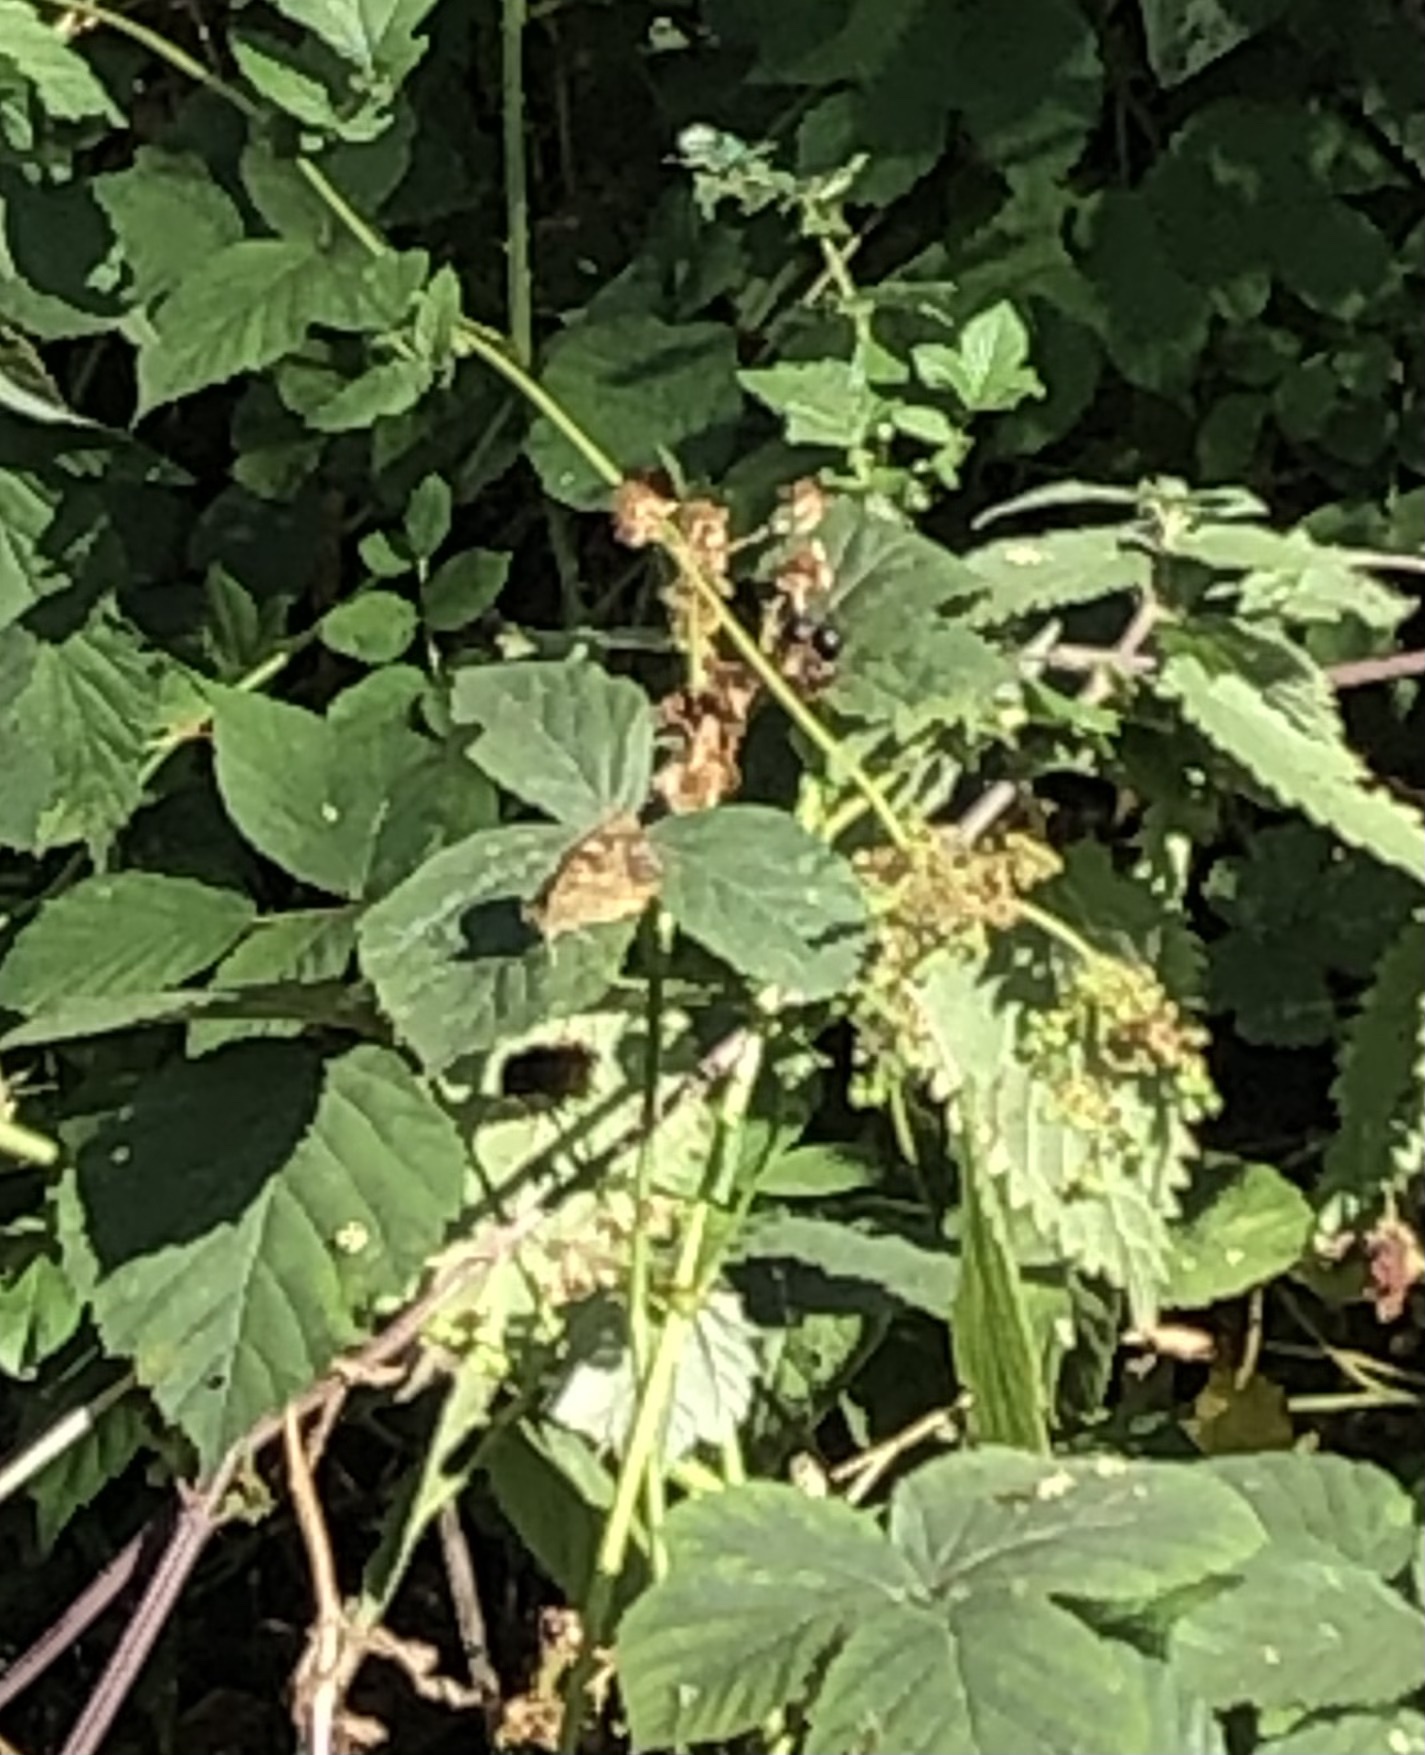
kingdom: Animalia
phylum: Arthropoda
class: Insecta
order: Lepidoptera
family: Nymphalidae
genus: Pararge
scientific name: Pararge aegeria
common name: Speckled wood
